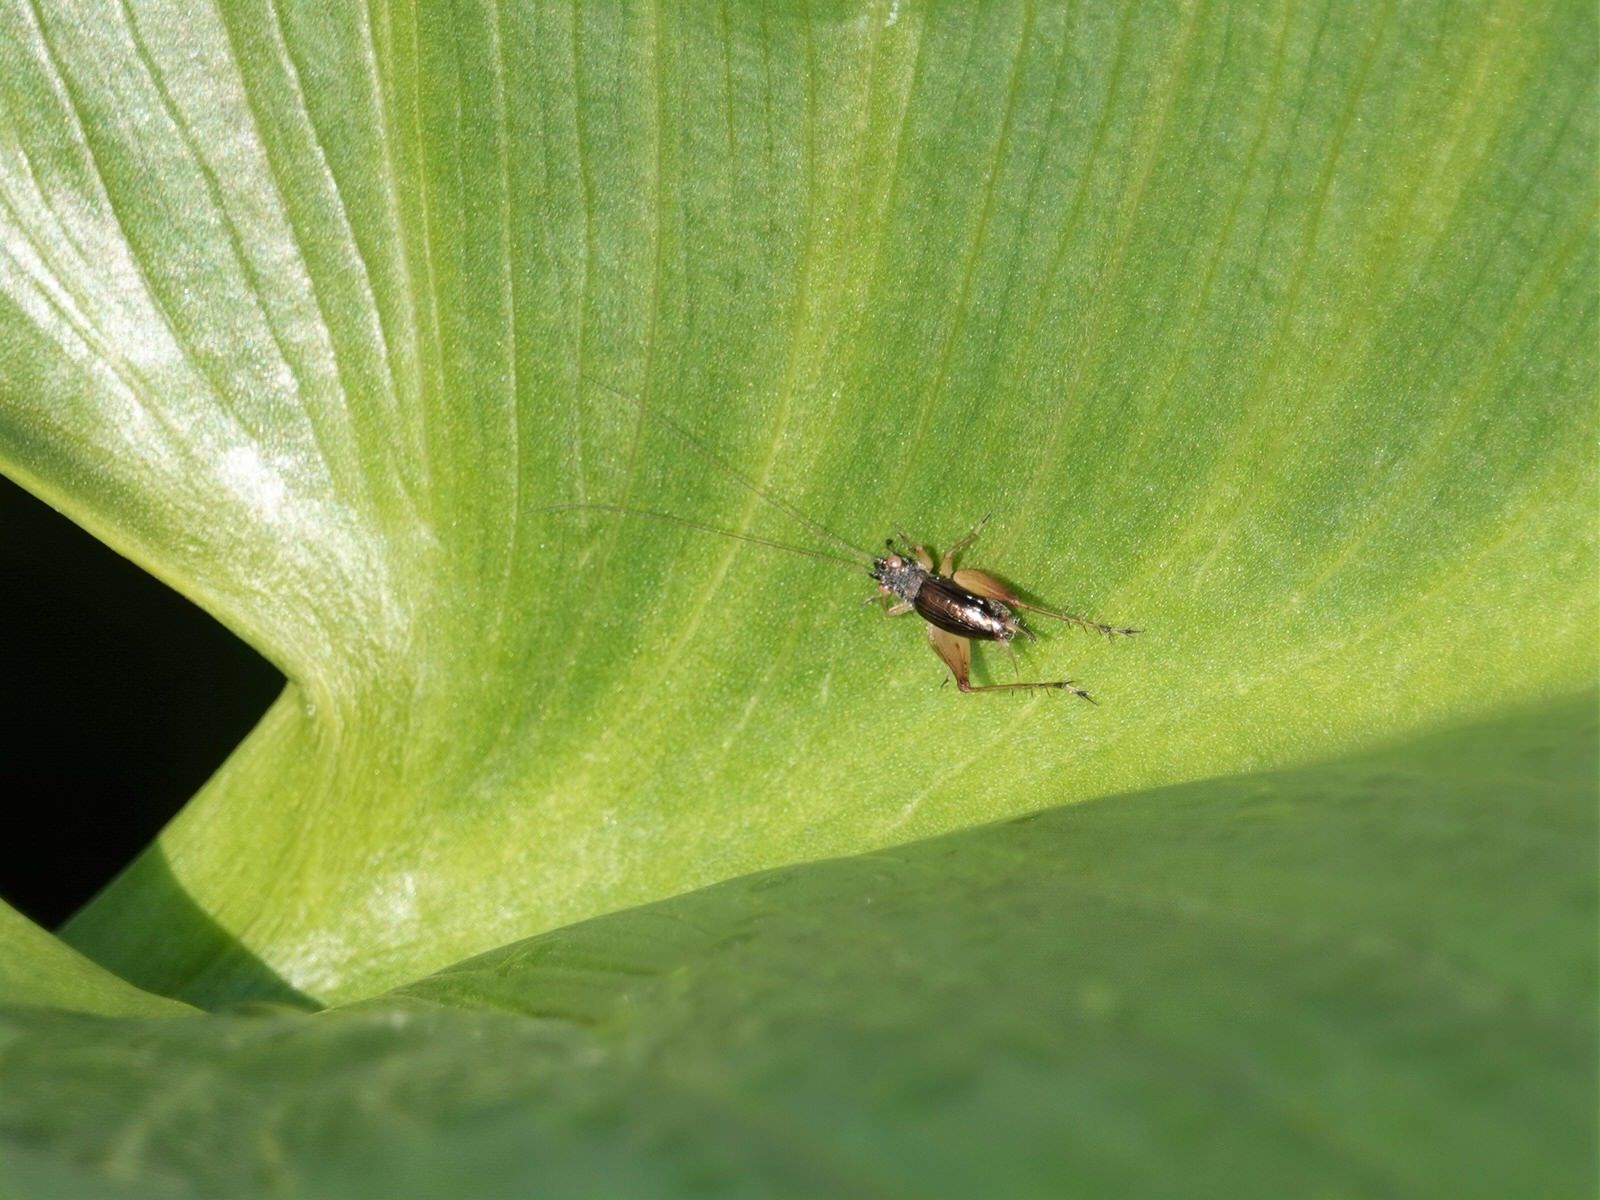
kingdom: Animalia
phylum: Arthropoda
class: Insecta
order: Orthoptera
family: Trigonidiidae
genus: Metioche
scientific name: Metioche maorica
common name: New zealand trig
